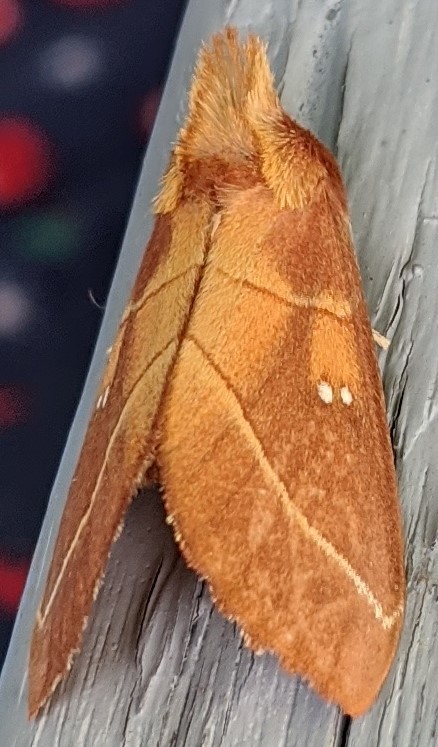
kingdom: Animalia
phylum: Arthropoda
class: Insecta
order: Lepidoptera
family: Notodontidae
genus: Nadata
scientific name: Nadata gibbosa
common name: White-dotted prominent
